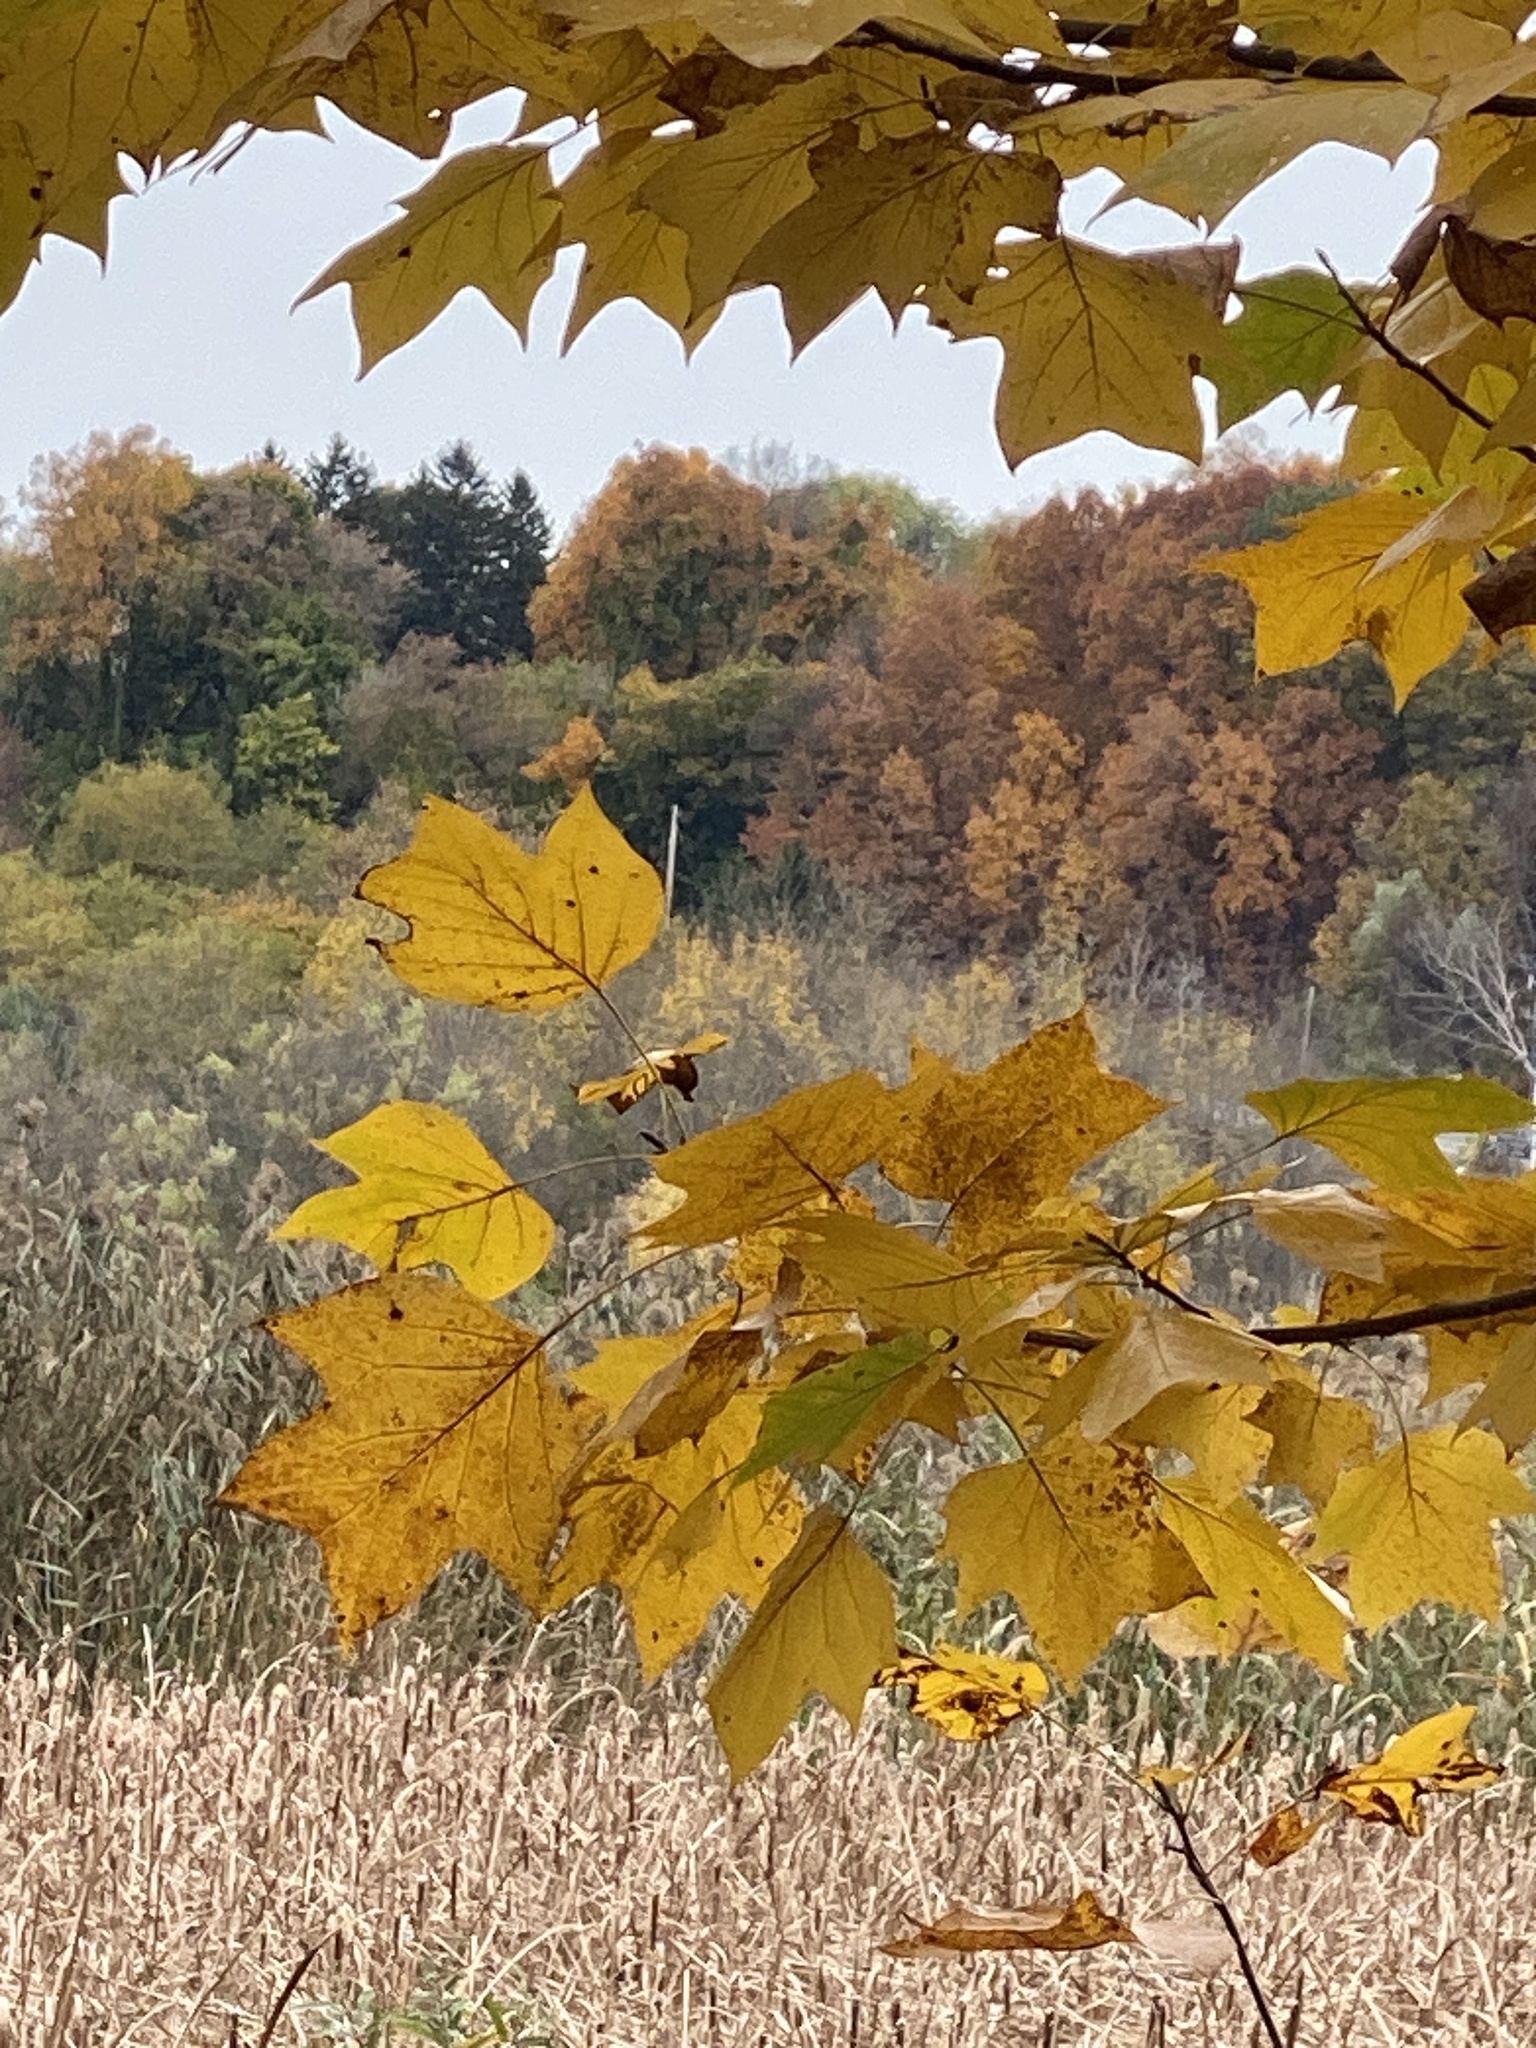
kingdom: Plantae
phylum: Tracheophyta
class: Magnoliopsida
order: Magnoliales
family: Magnoliaceae
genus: Liriodendron
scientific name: Liriodendron tulipifera
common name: Tulip tree
